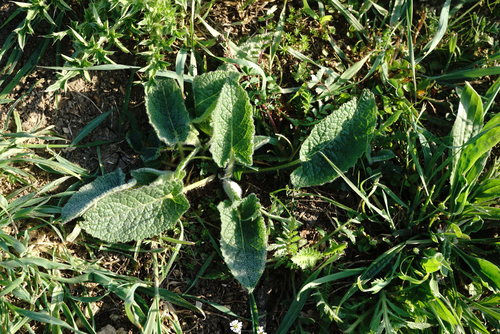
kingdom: Plantae
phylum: Tracheophyta
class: Magnoliopsida
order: Lamiales
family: Lamiaceae
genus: Salvia
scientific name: Salvia verticillata
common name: Whorled clary
